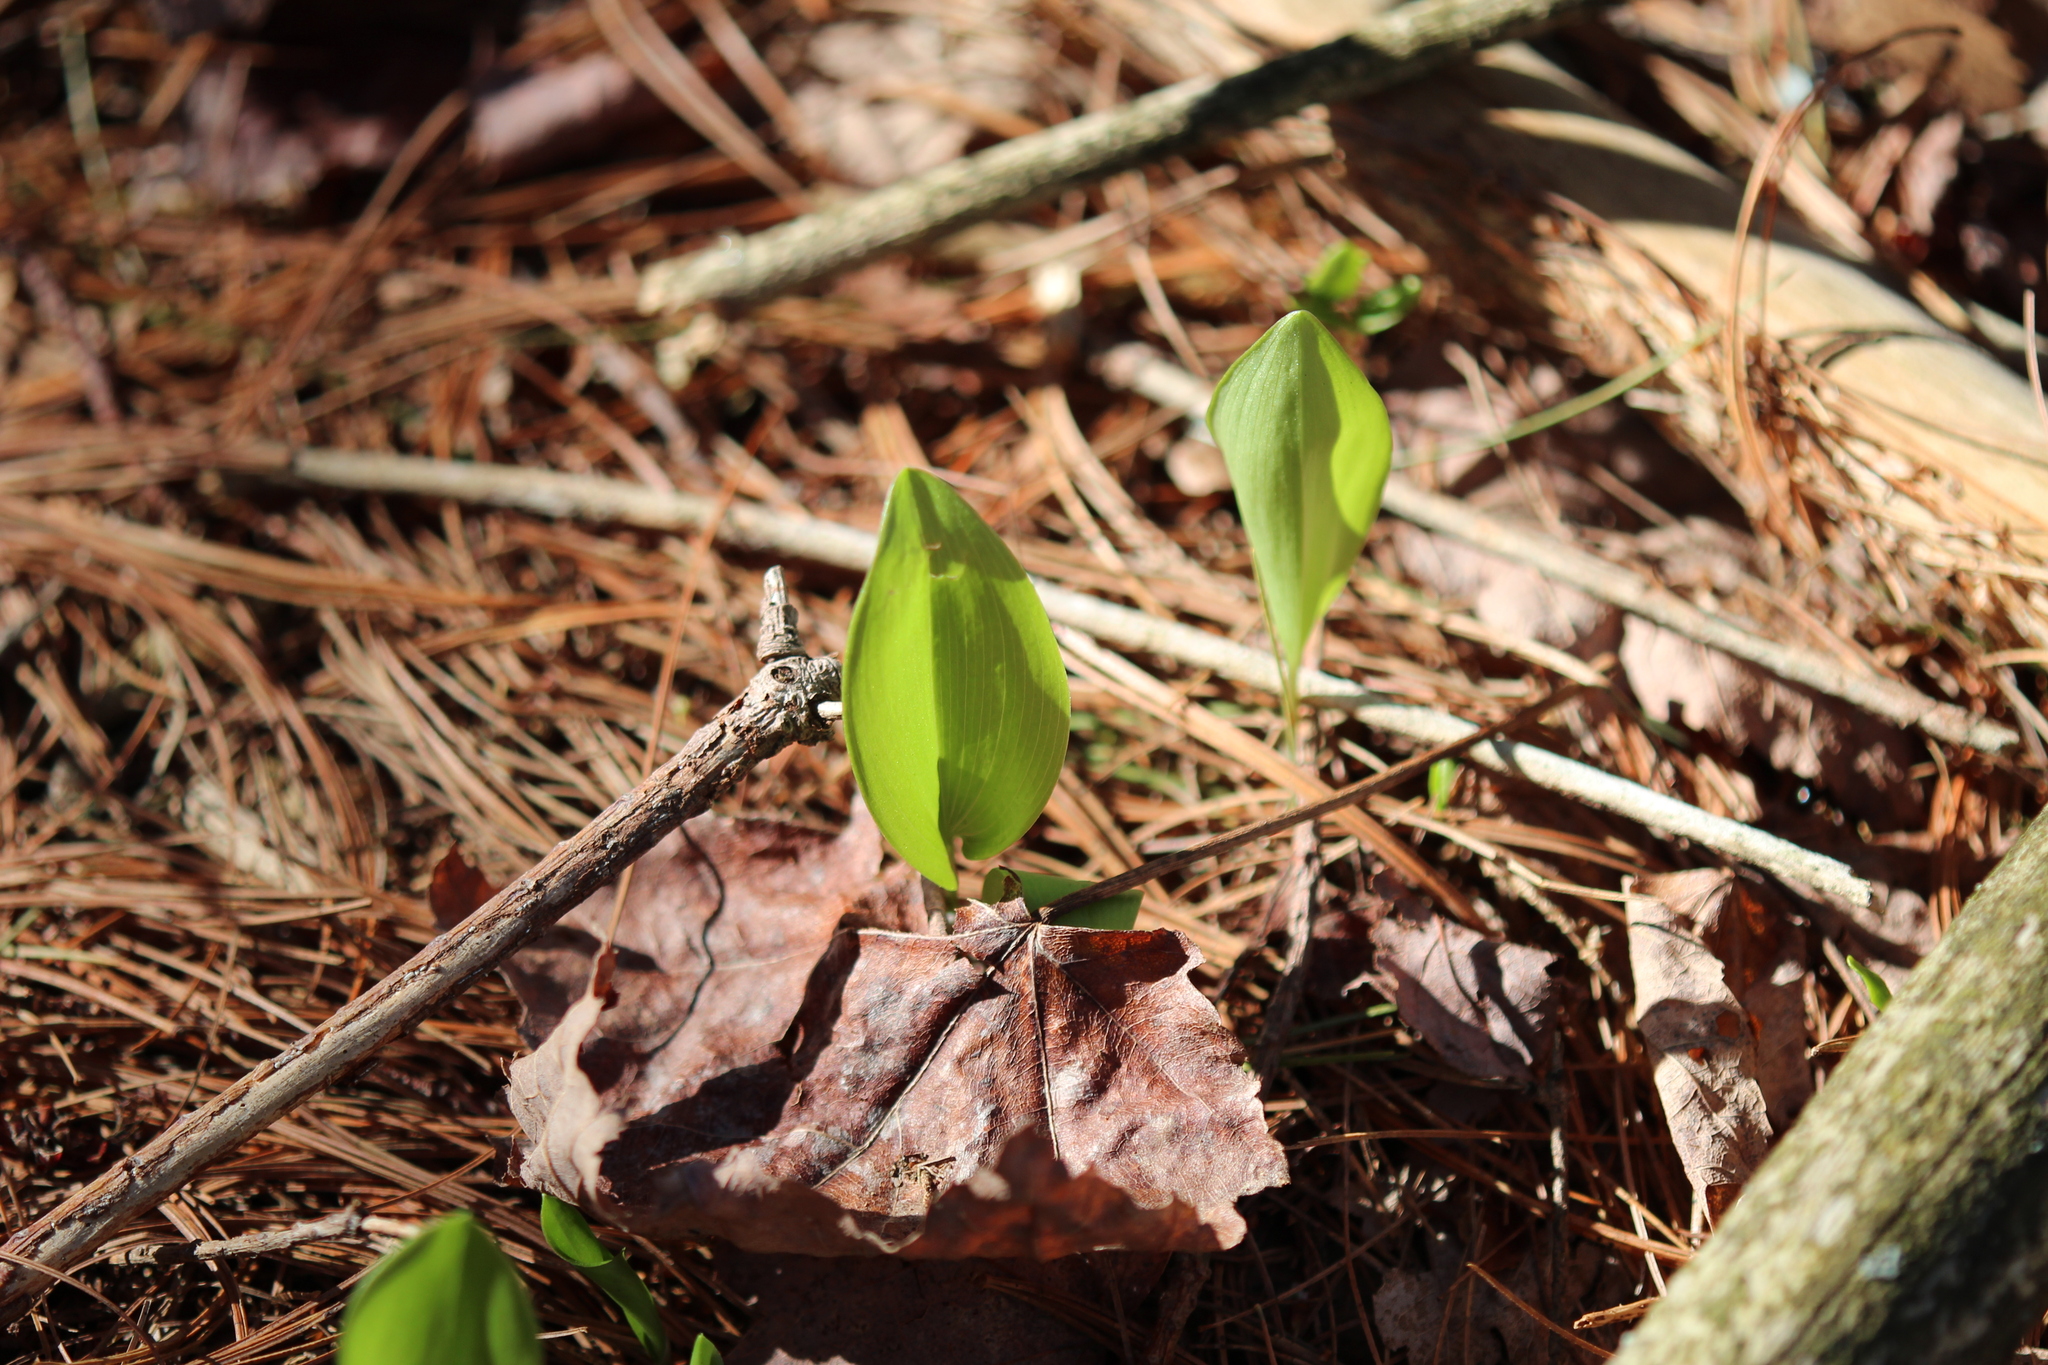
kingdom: Plantae
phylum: Tracheophyta
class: Liliopsida
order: Asparagales
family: Asparagaceae
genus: Maianthemum
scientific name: Maianthemum canadense
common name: False lily-of-the-valley
